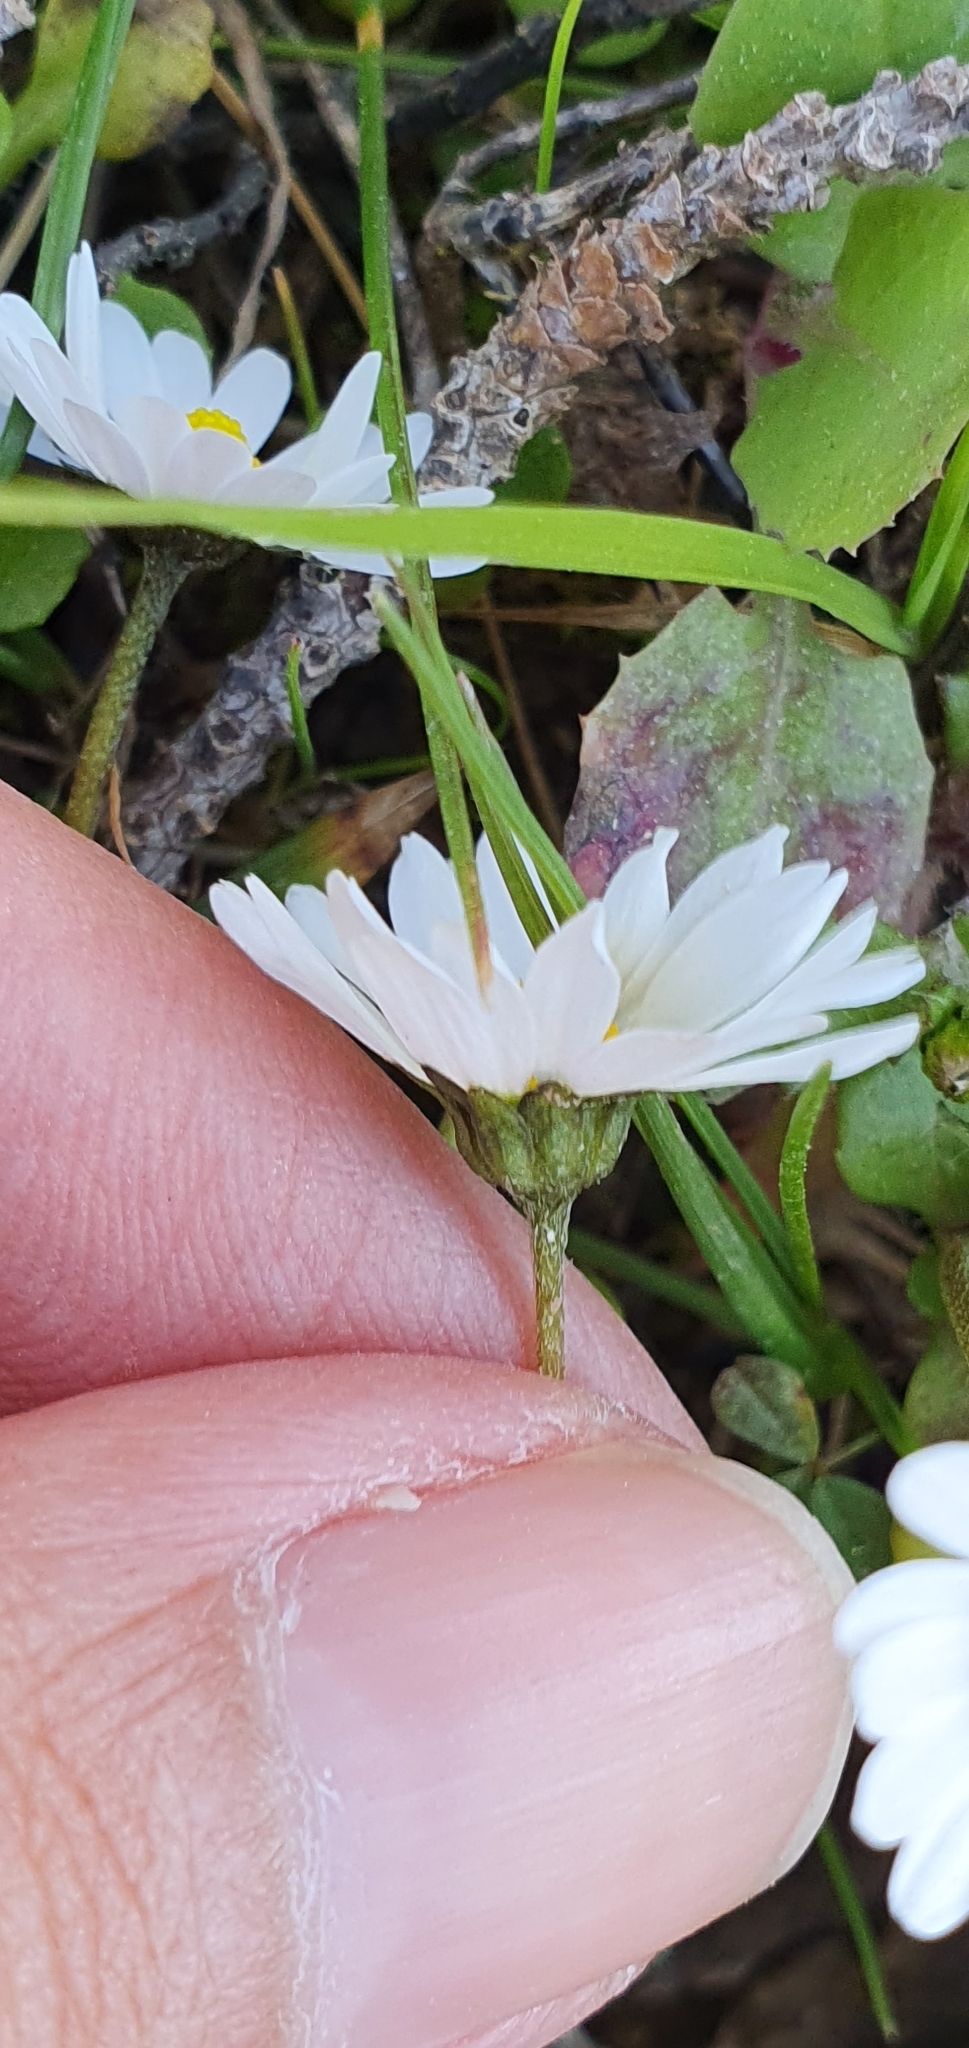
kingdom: Plantae
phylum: Tracheophyta
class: Magnoliopsida
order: Asterales
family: Asteraceae
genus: Bellis
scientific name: Bellis annua
